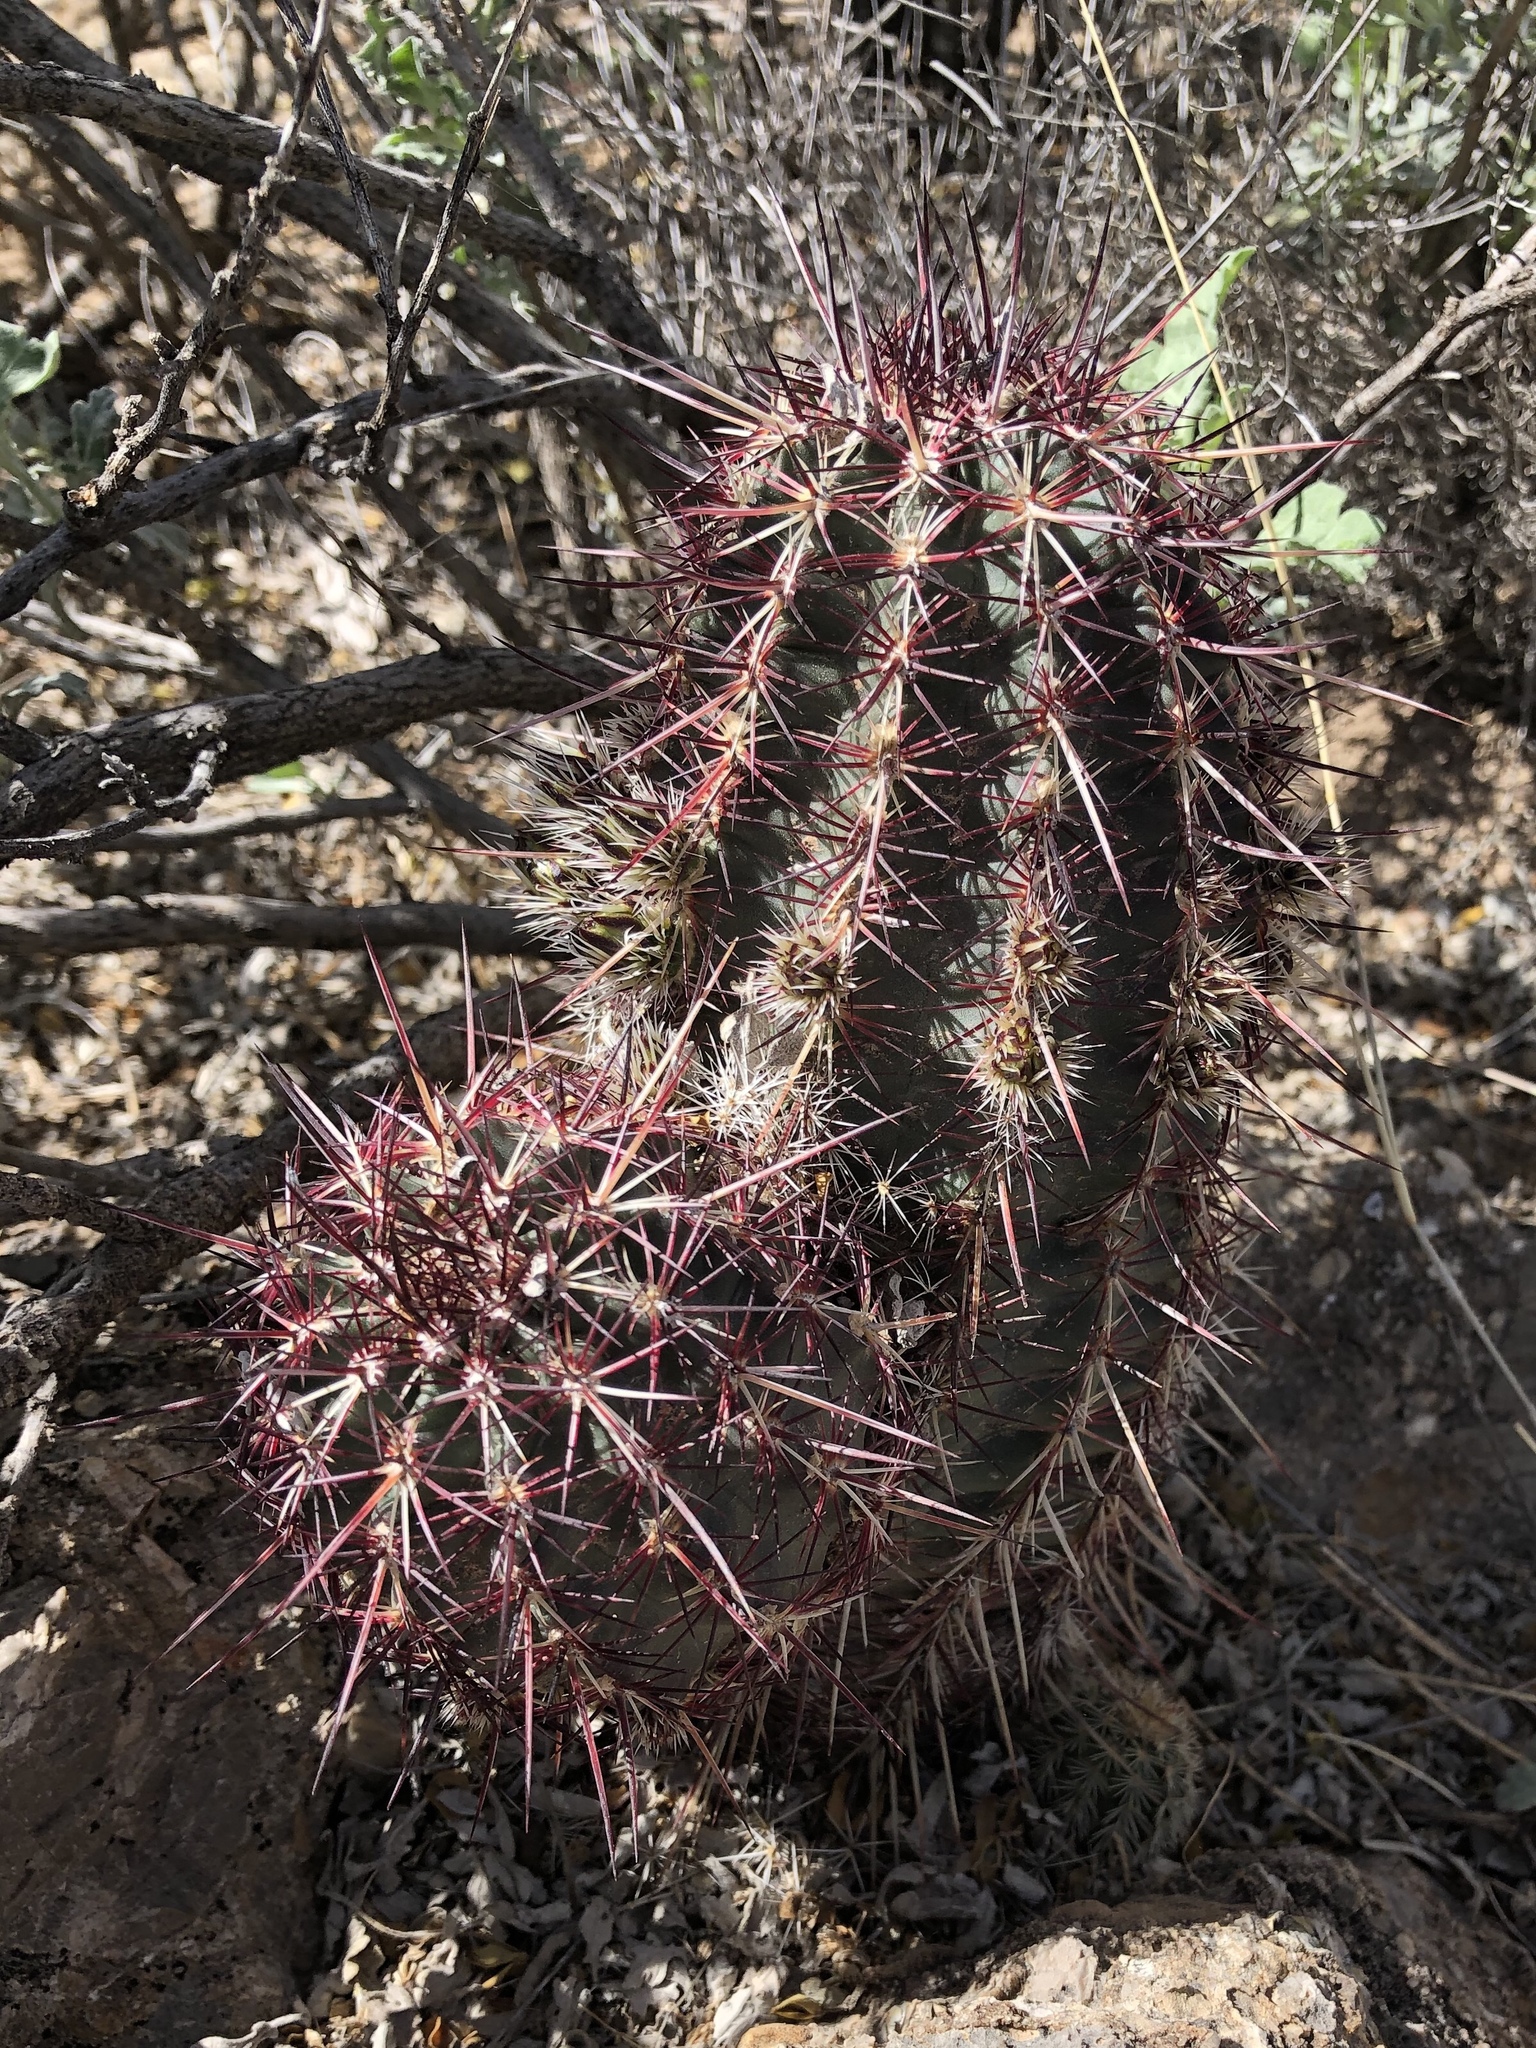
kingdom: Plantae
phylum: Tracheophyta
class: Magnoliopsida
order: Caryophyllales
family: Cactaceae
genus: Echinocereus
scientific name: Echinocereus viridiflorus
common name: Nylon hedgehog cactus
